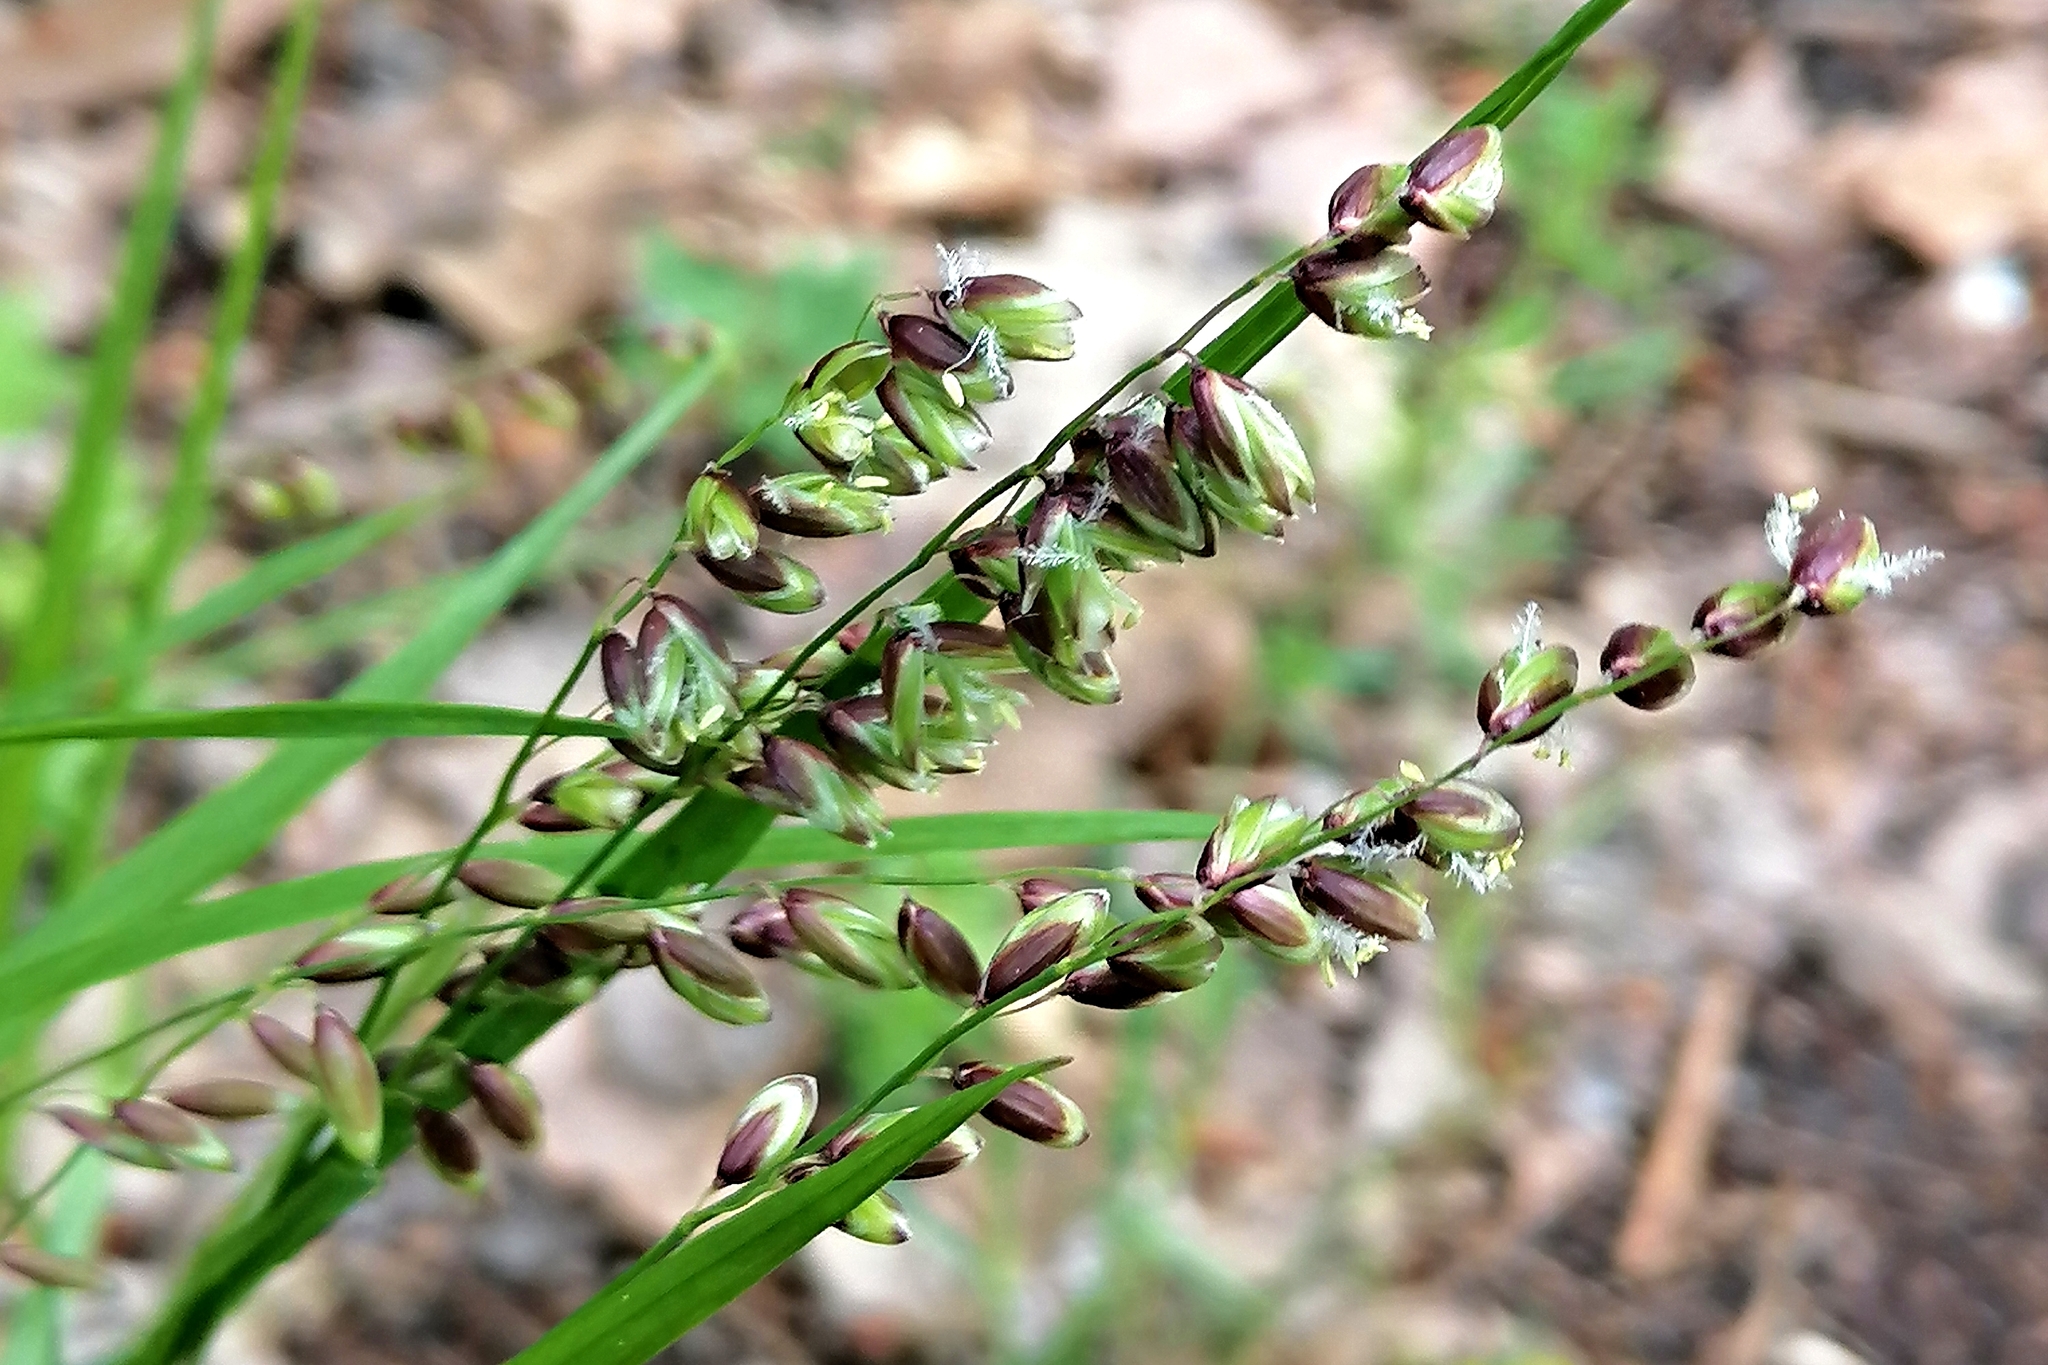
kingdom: Plantae
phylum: Tracheophyta
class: Liliopsida
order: Poales
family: Poaceae
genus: Melica
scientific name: Melica nutans
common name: Mountain melick
